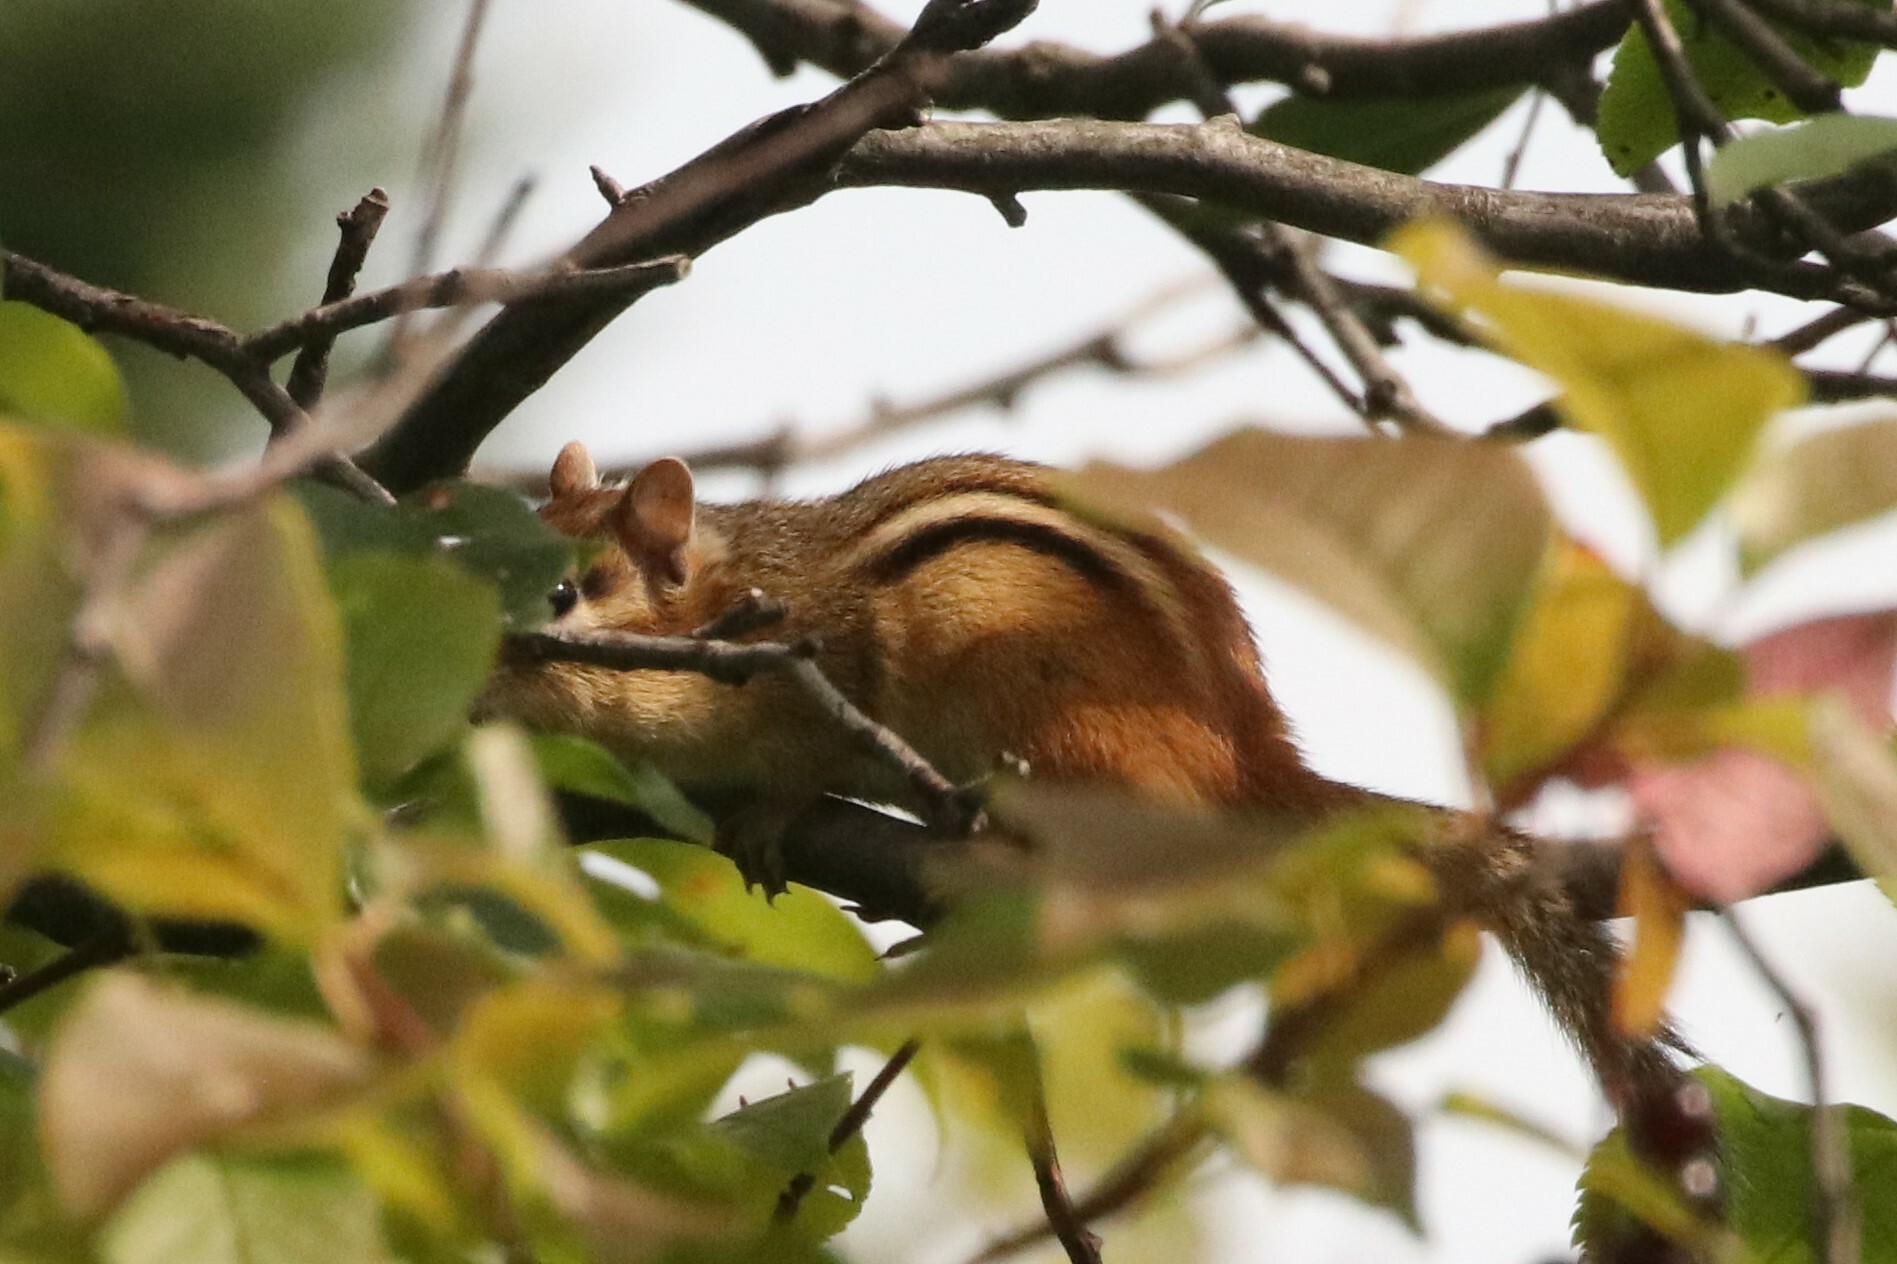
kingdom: Animalia
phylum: Chordata
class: Mammalia
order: Rodentia
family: Sciuridae
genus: Tamias
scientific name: Tamias striatus
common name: Eastern chipmunk
